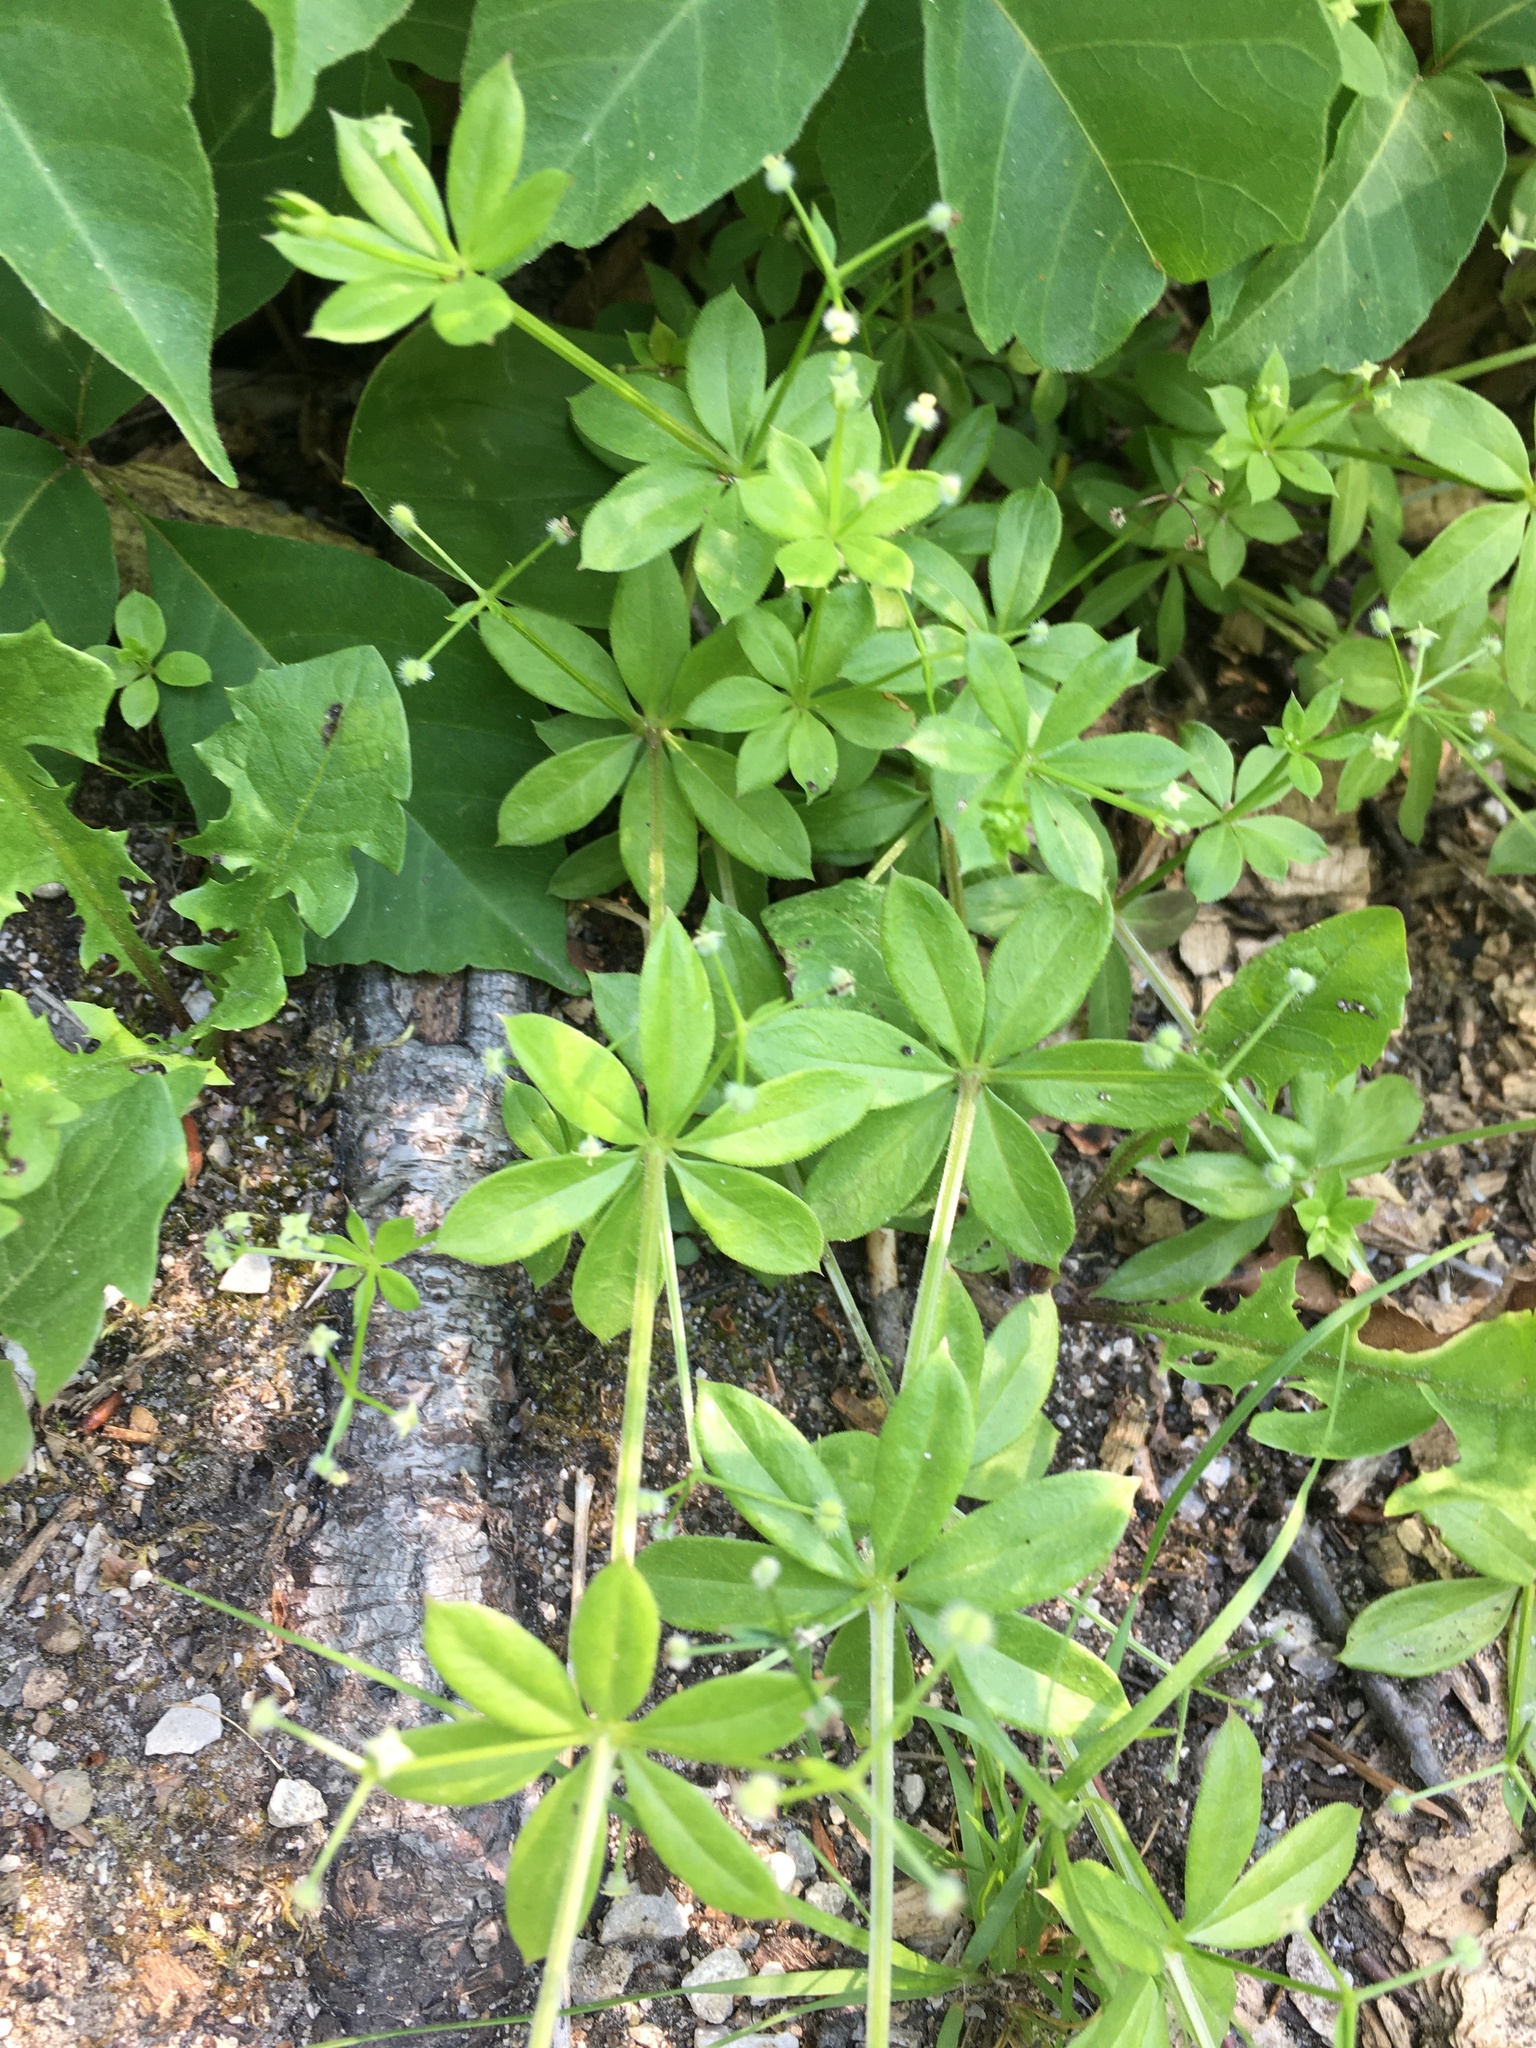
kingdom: Plantae
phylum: Tracheophyta
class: Magnoliopsida
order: Gentianales
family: Rubiaceae
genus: Galium
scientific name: Galium triflorum
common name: Fragrant bedstraw
